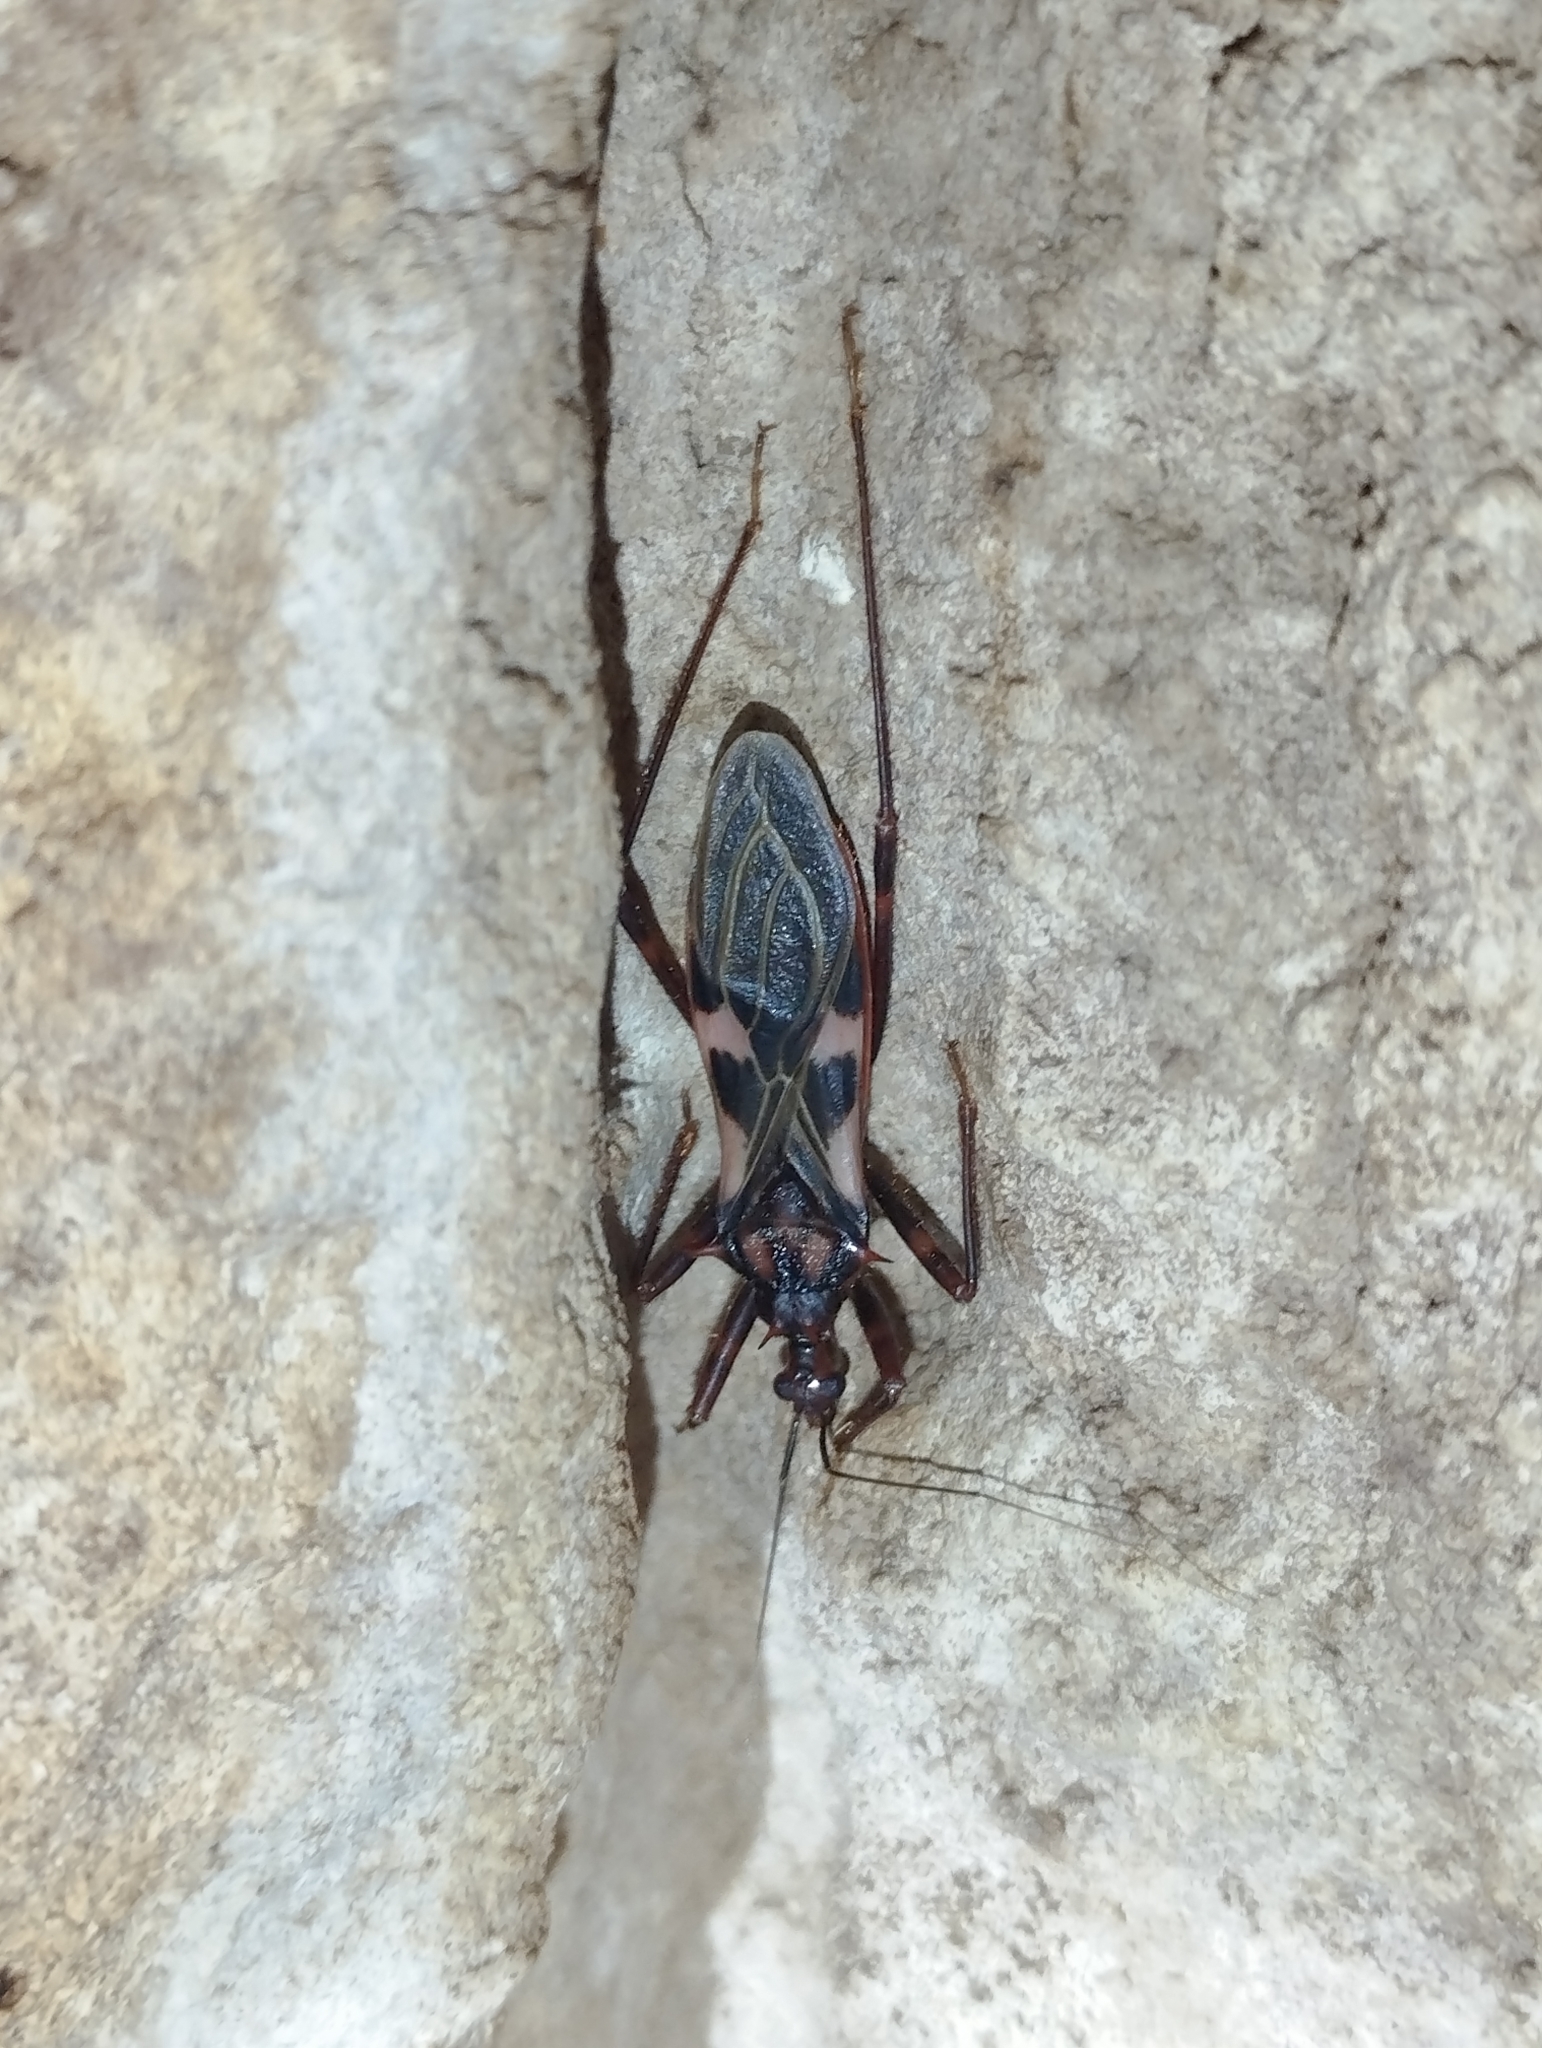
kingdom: Animalia
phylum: Arthropoda
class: Insecta
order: Hemiptera
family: Reduviidae
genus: Leogorrus
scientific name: Leogorrus litura
